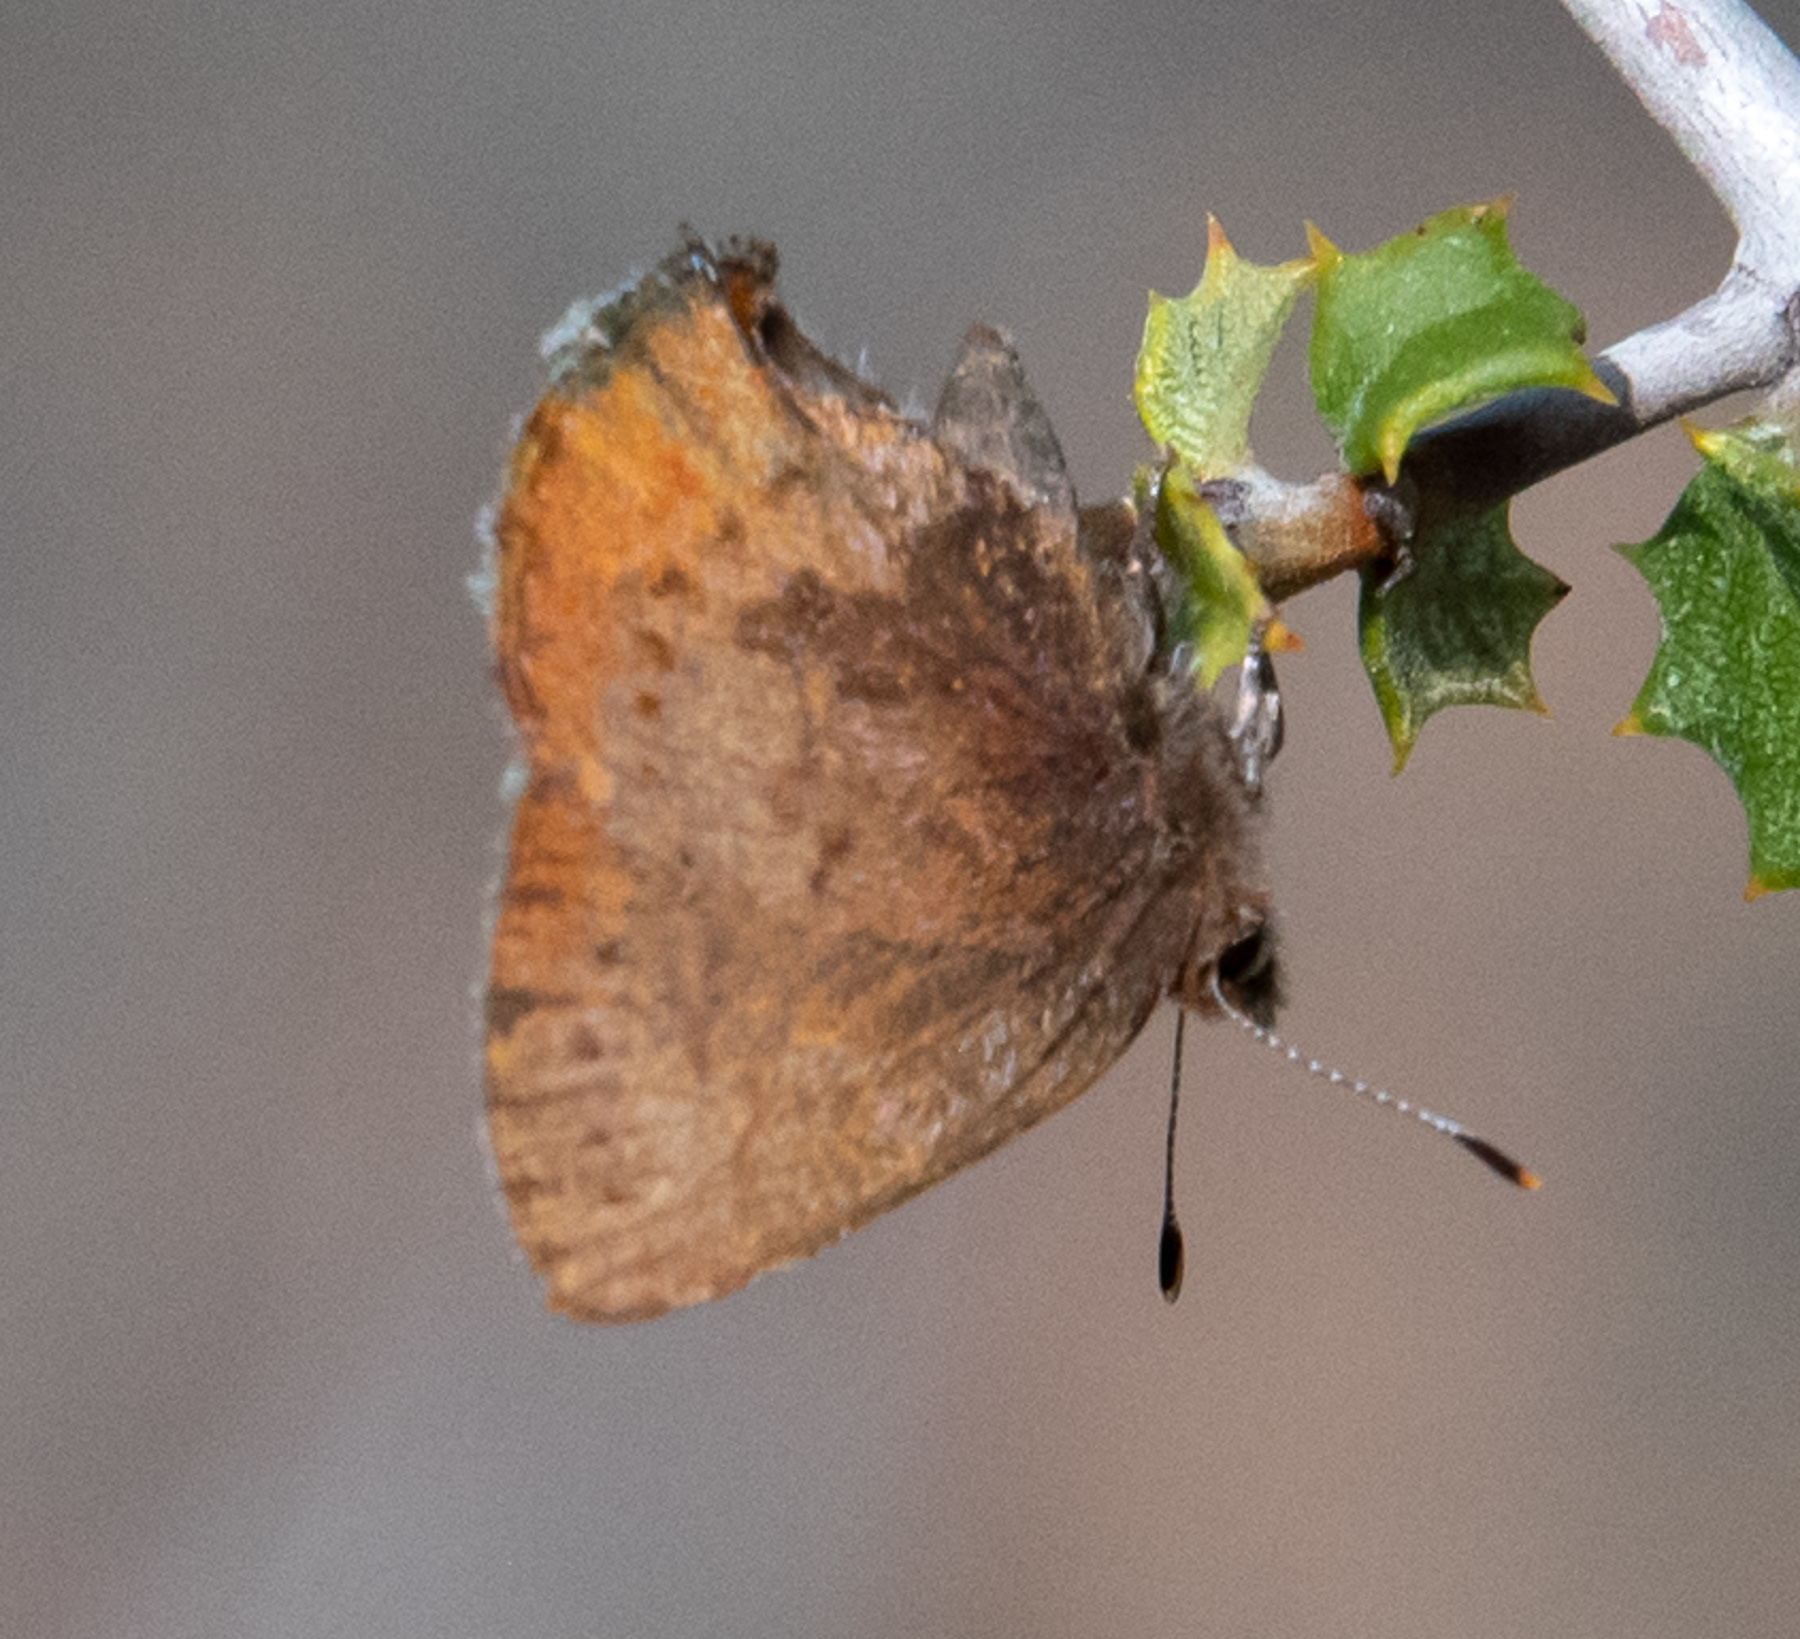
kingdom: Animalia
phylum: Arthropoda
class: Insecta
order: Lepidoptera
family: Lycaenidae
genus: Incisalia
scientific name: Incisalia irioides
